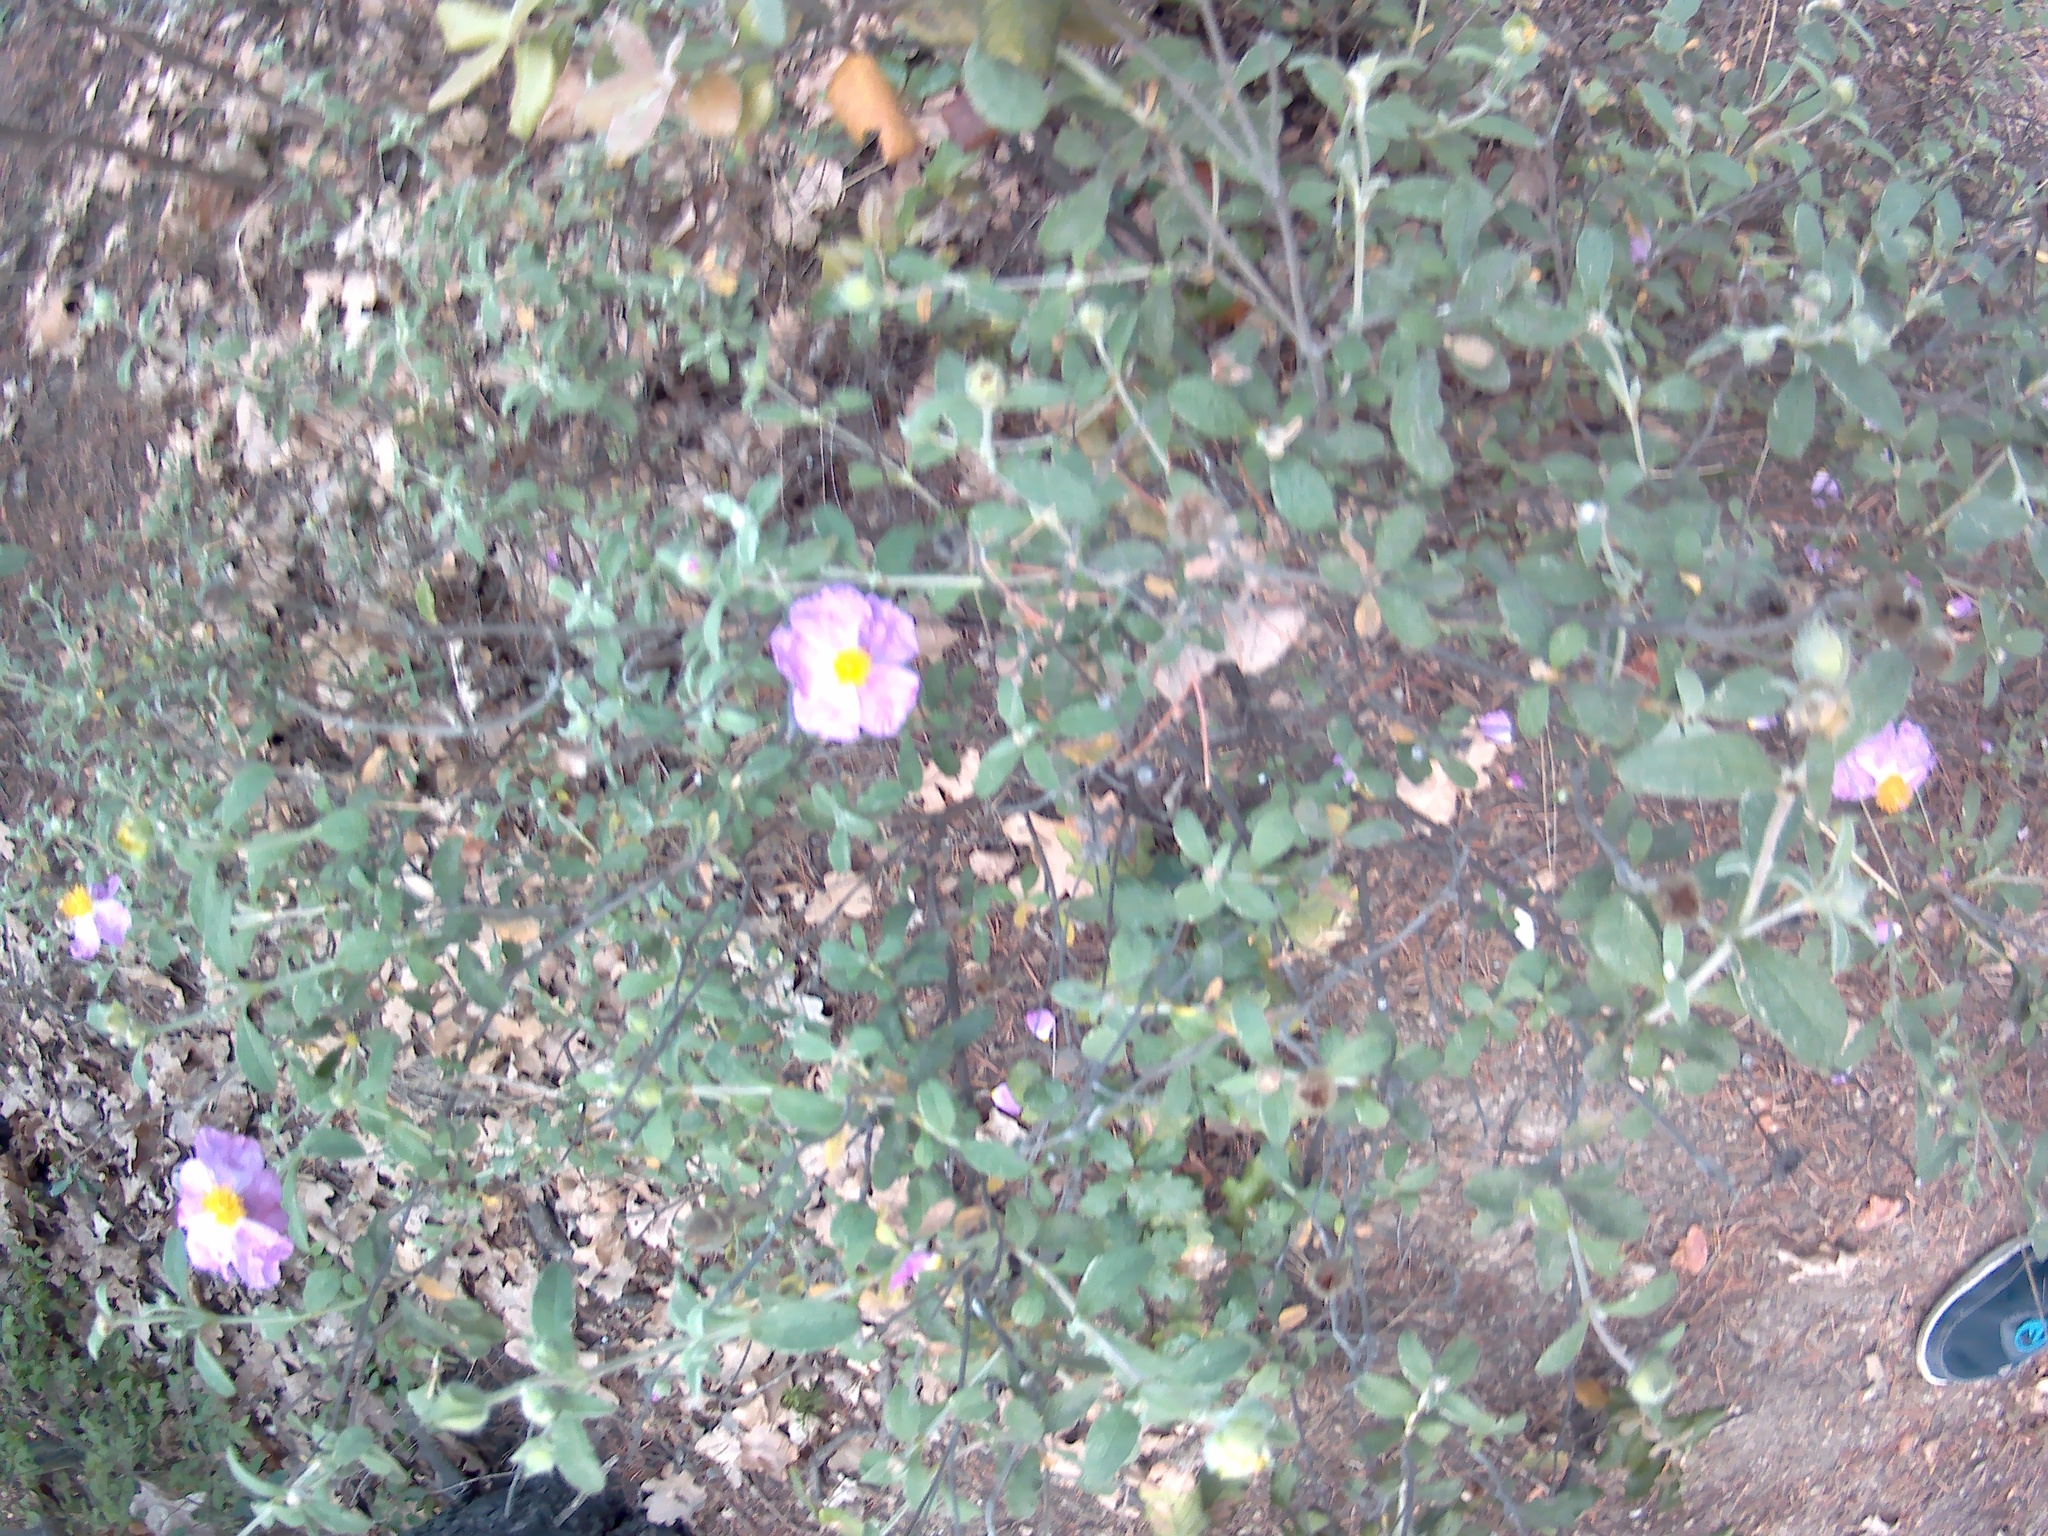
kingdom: Plantae
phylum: Tracheophyta
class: Magnoliopsida
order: Malvales
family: Cistaceae
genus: Cistus
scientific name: Cistus tauricus
